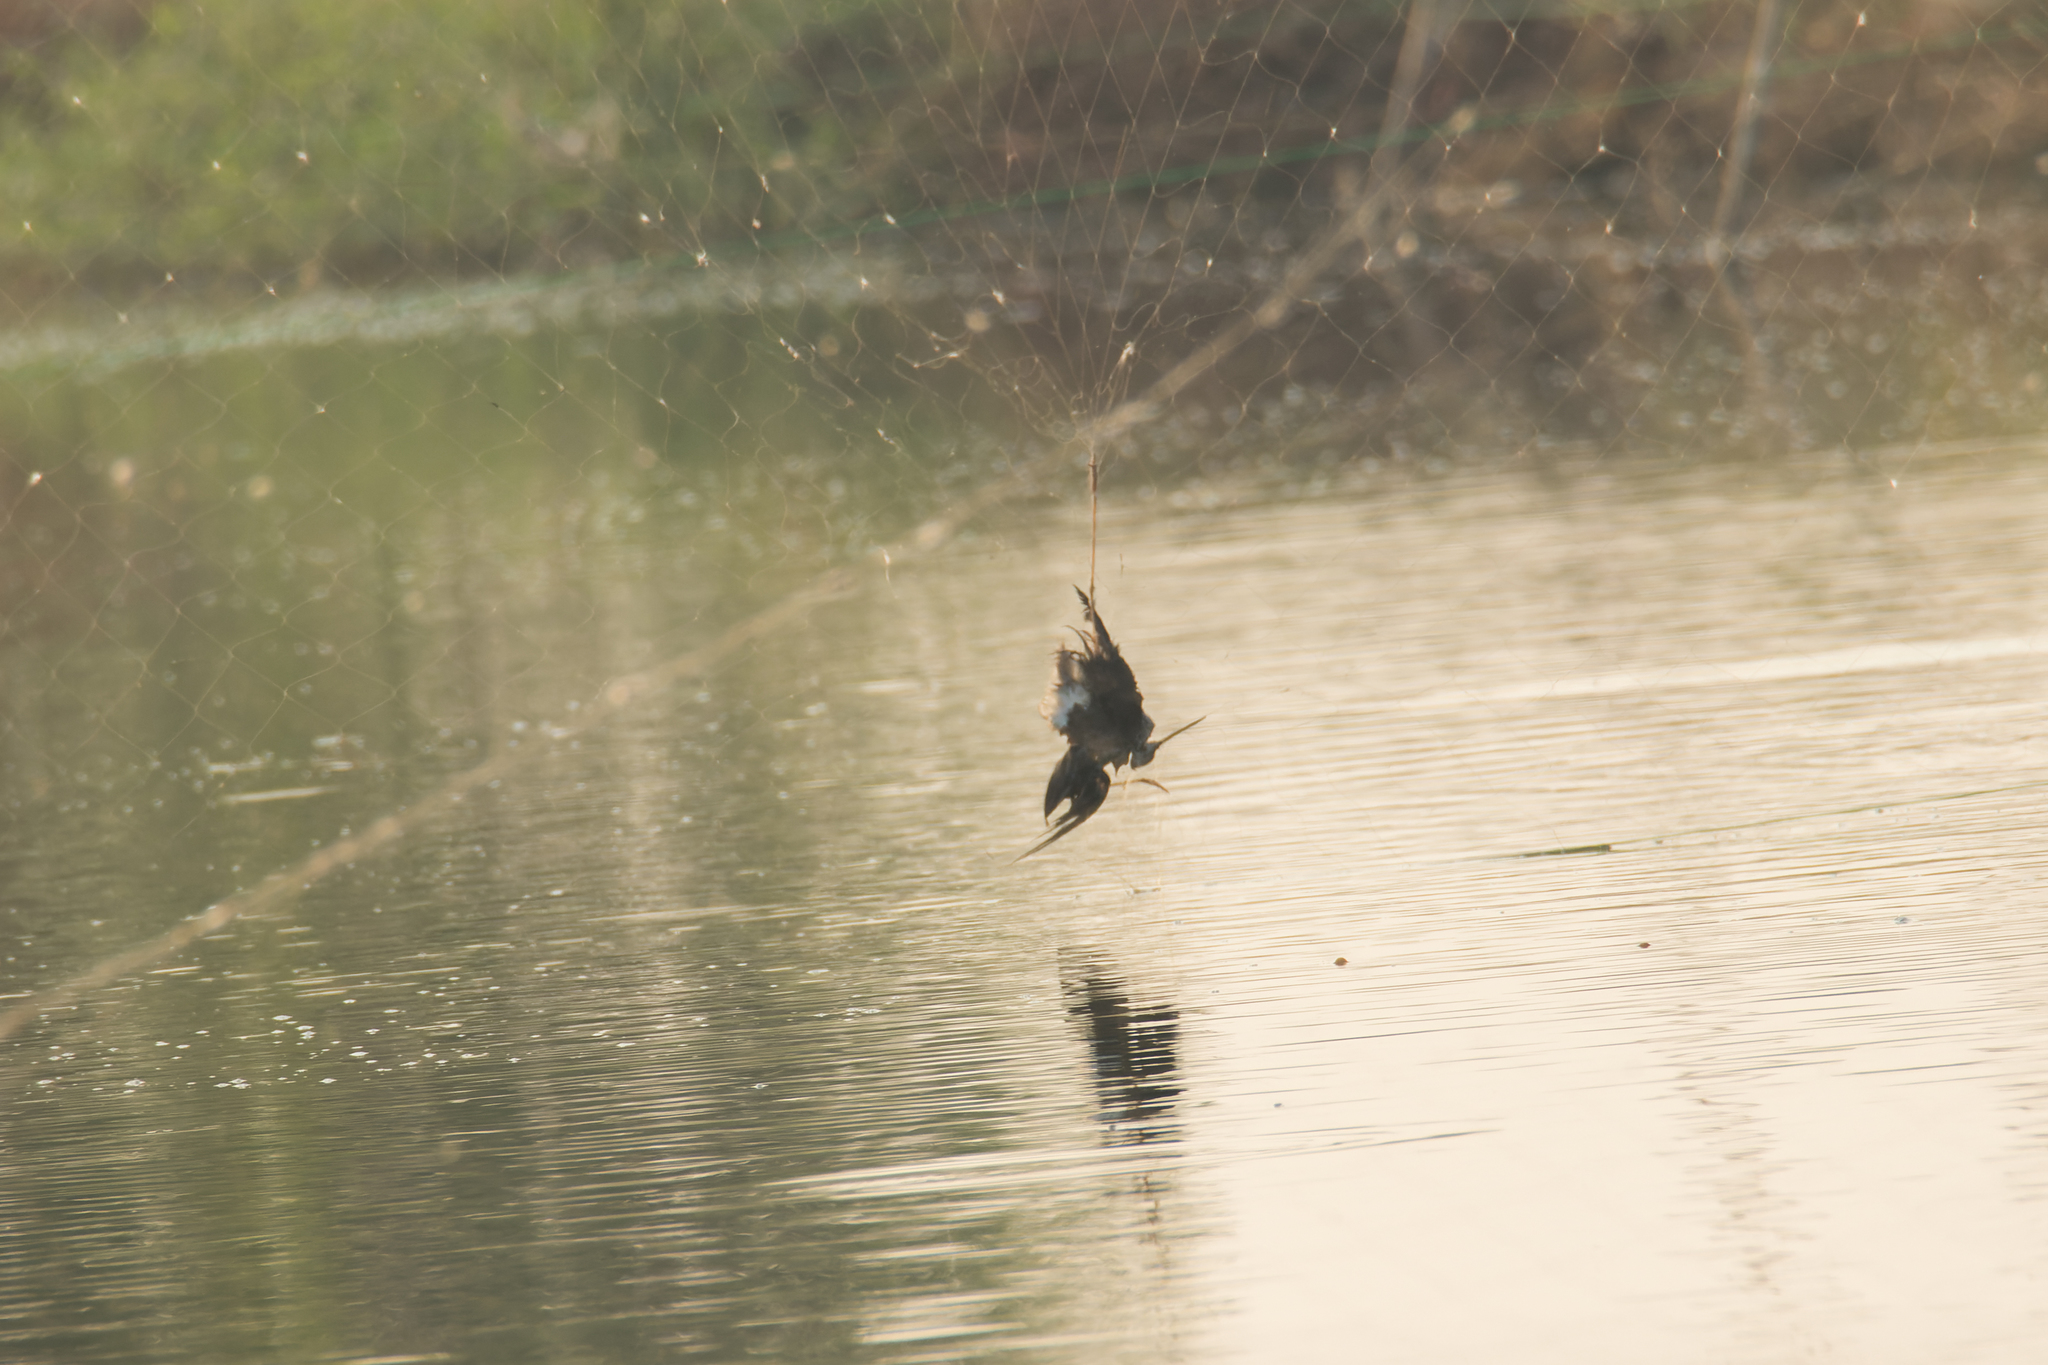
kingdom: Animalia
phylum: Chordata
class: Aves
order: Charadriiformes
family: Scolopacidae
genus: Tringa
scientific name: Tringa erythropus
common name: Spotted redshank
